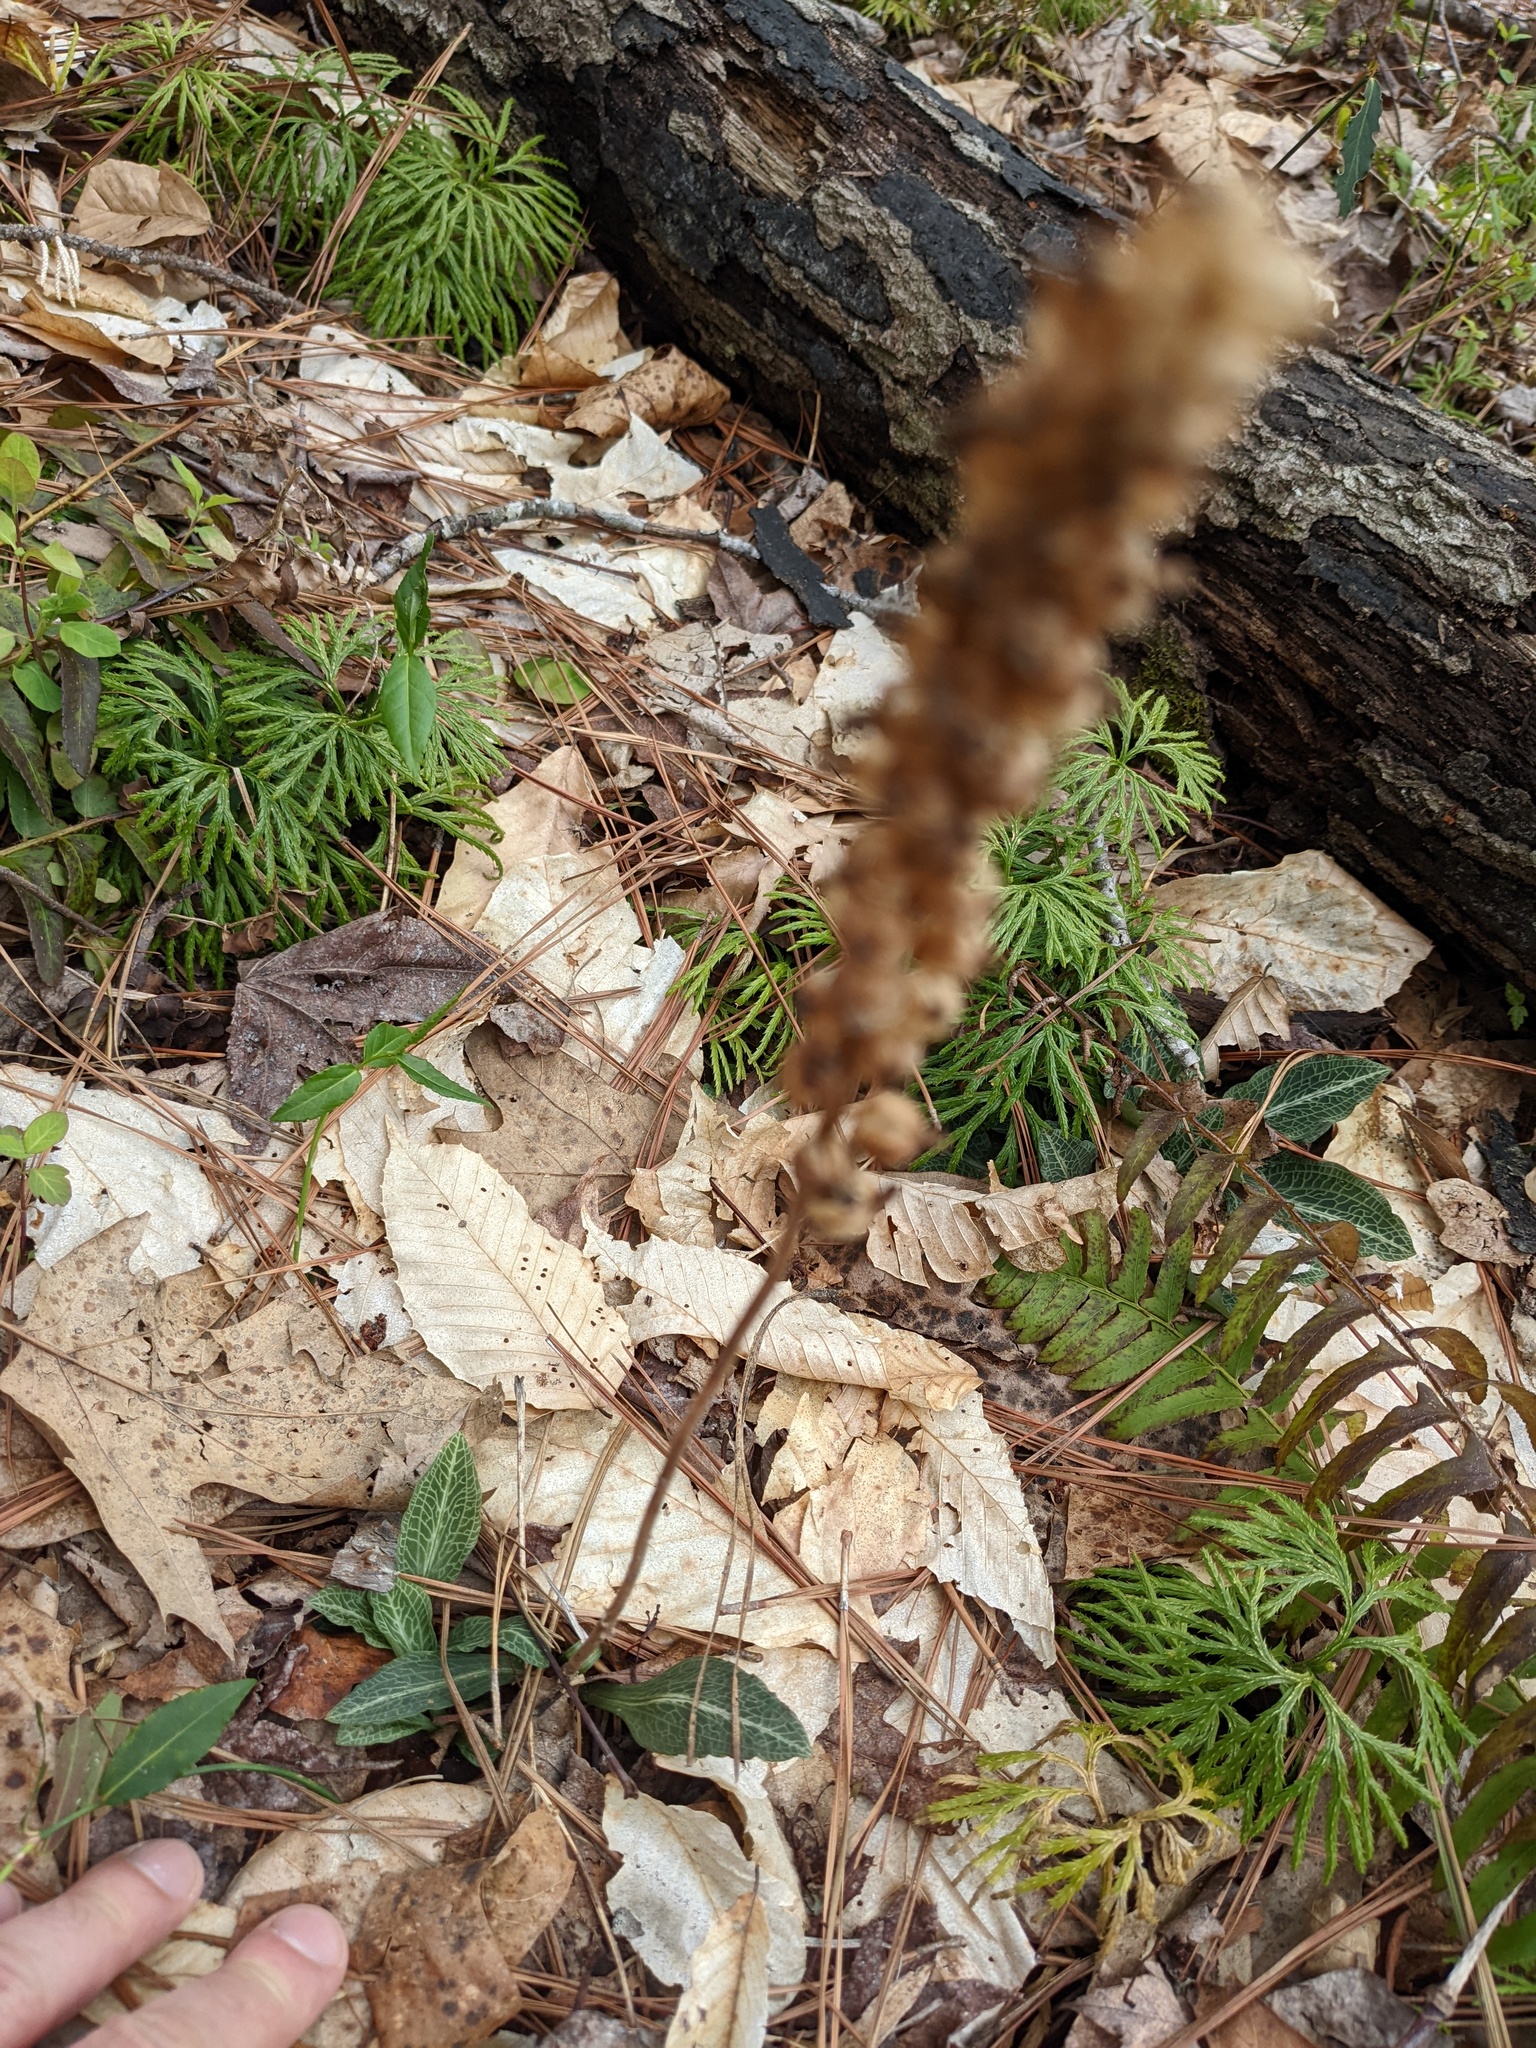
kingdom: Plantae
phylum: Tracheophyta
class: Liliopsida
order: Asparagales
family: Orchidaceae
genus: Goodyera
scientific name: Goodyera pubescens
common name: Downy rattlesnake-plantain
